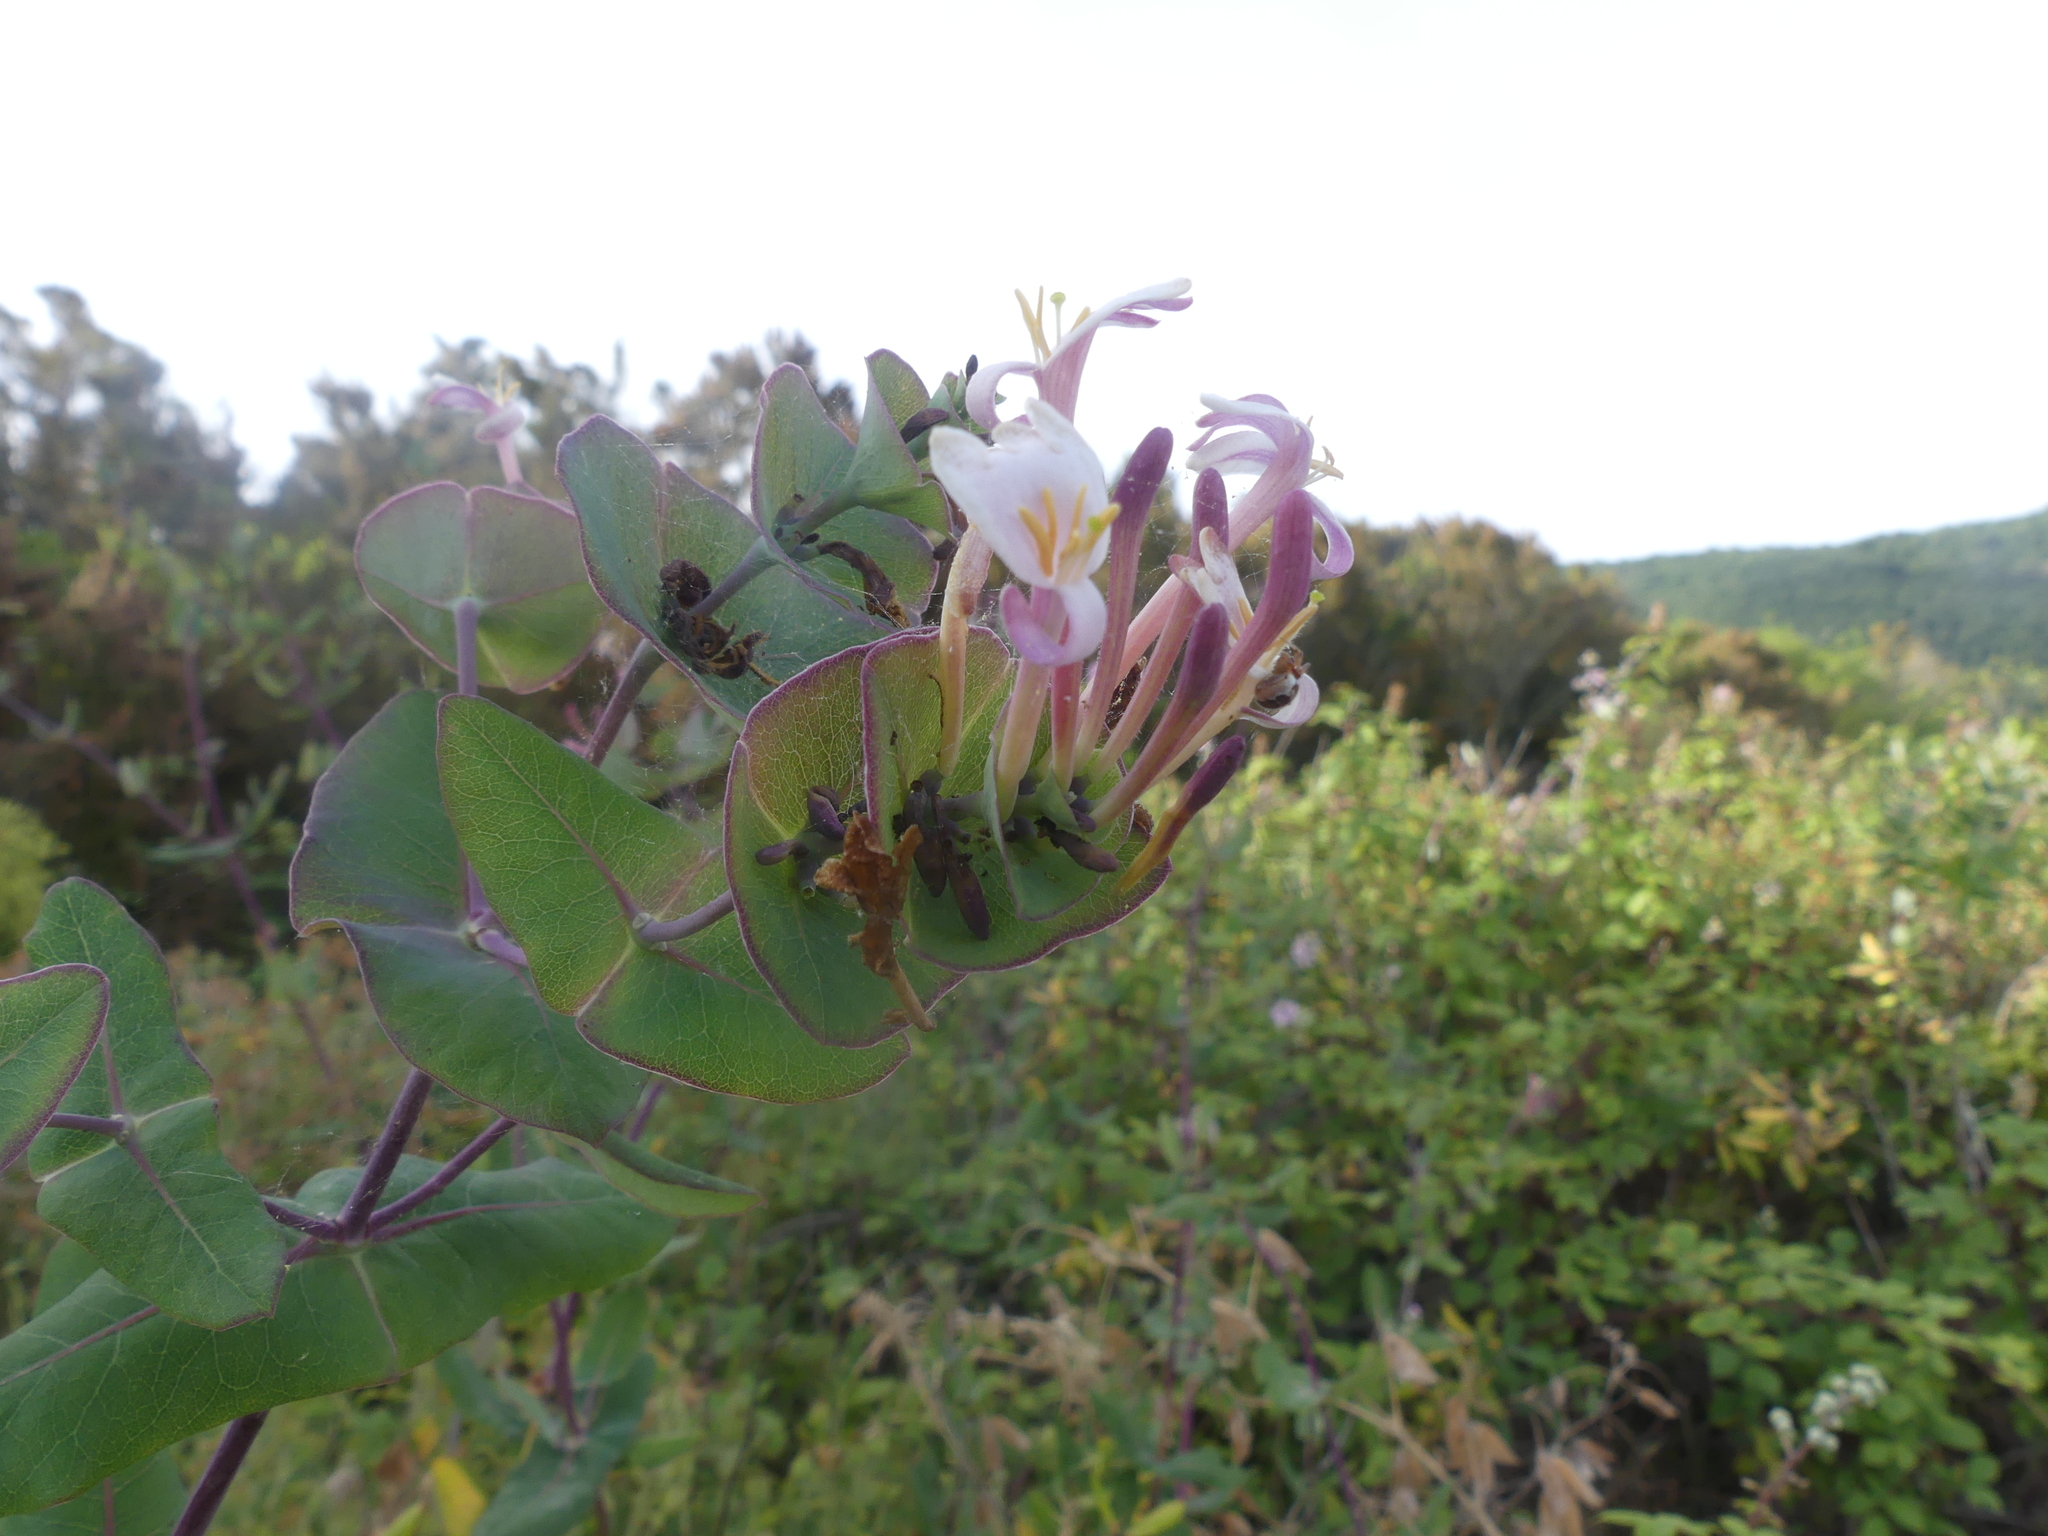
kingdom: Plantae
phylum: Tracheophyta
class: Magnoliopsida
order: Dipsacales
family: Caprifoliaceae
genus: Lonicera
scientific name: Lonicera implexa
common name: Minorca honeysuckle
